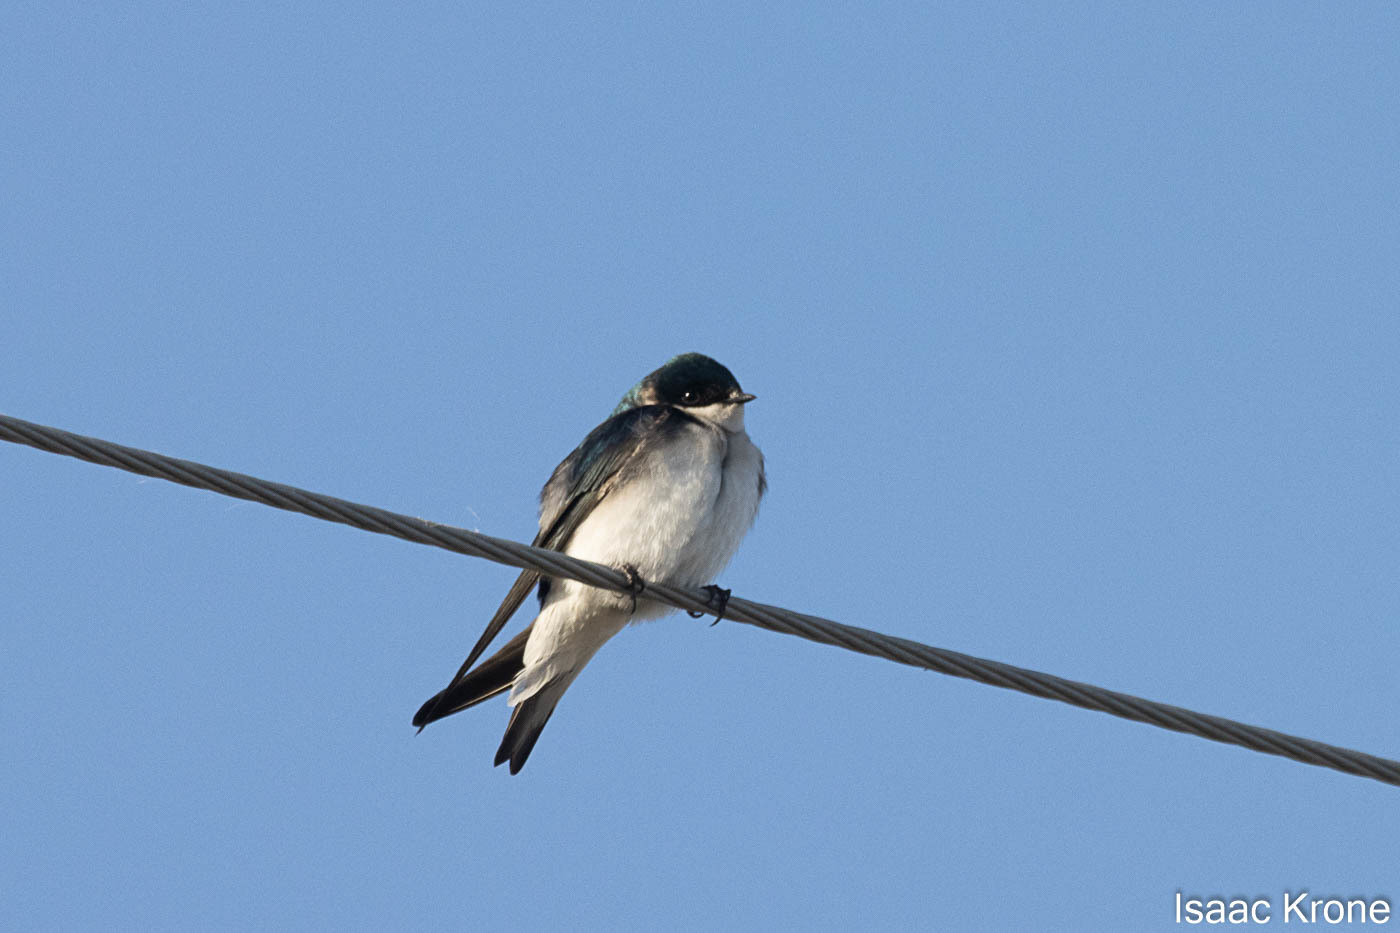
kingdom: Animalia
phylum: Chordata
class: Aves
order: Passeriformes
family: Hirundinidae
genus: Tachycineta
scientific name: Tachycineta bicolor
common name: Tree swallow
